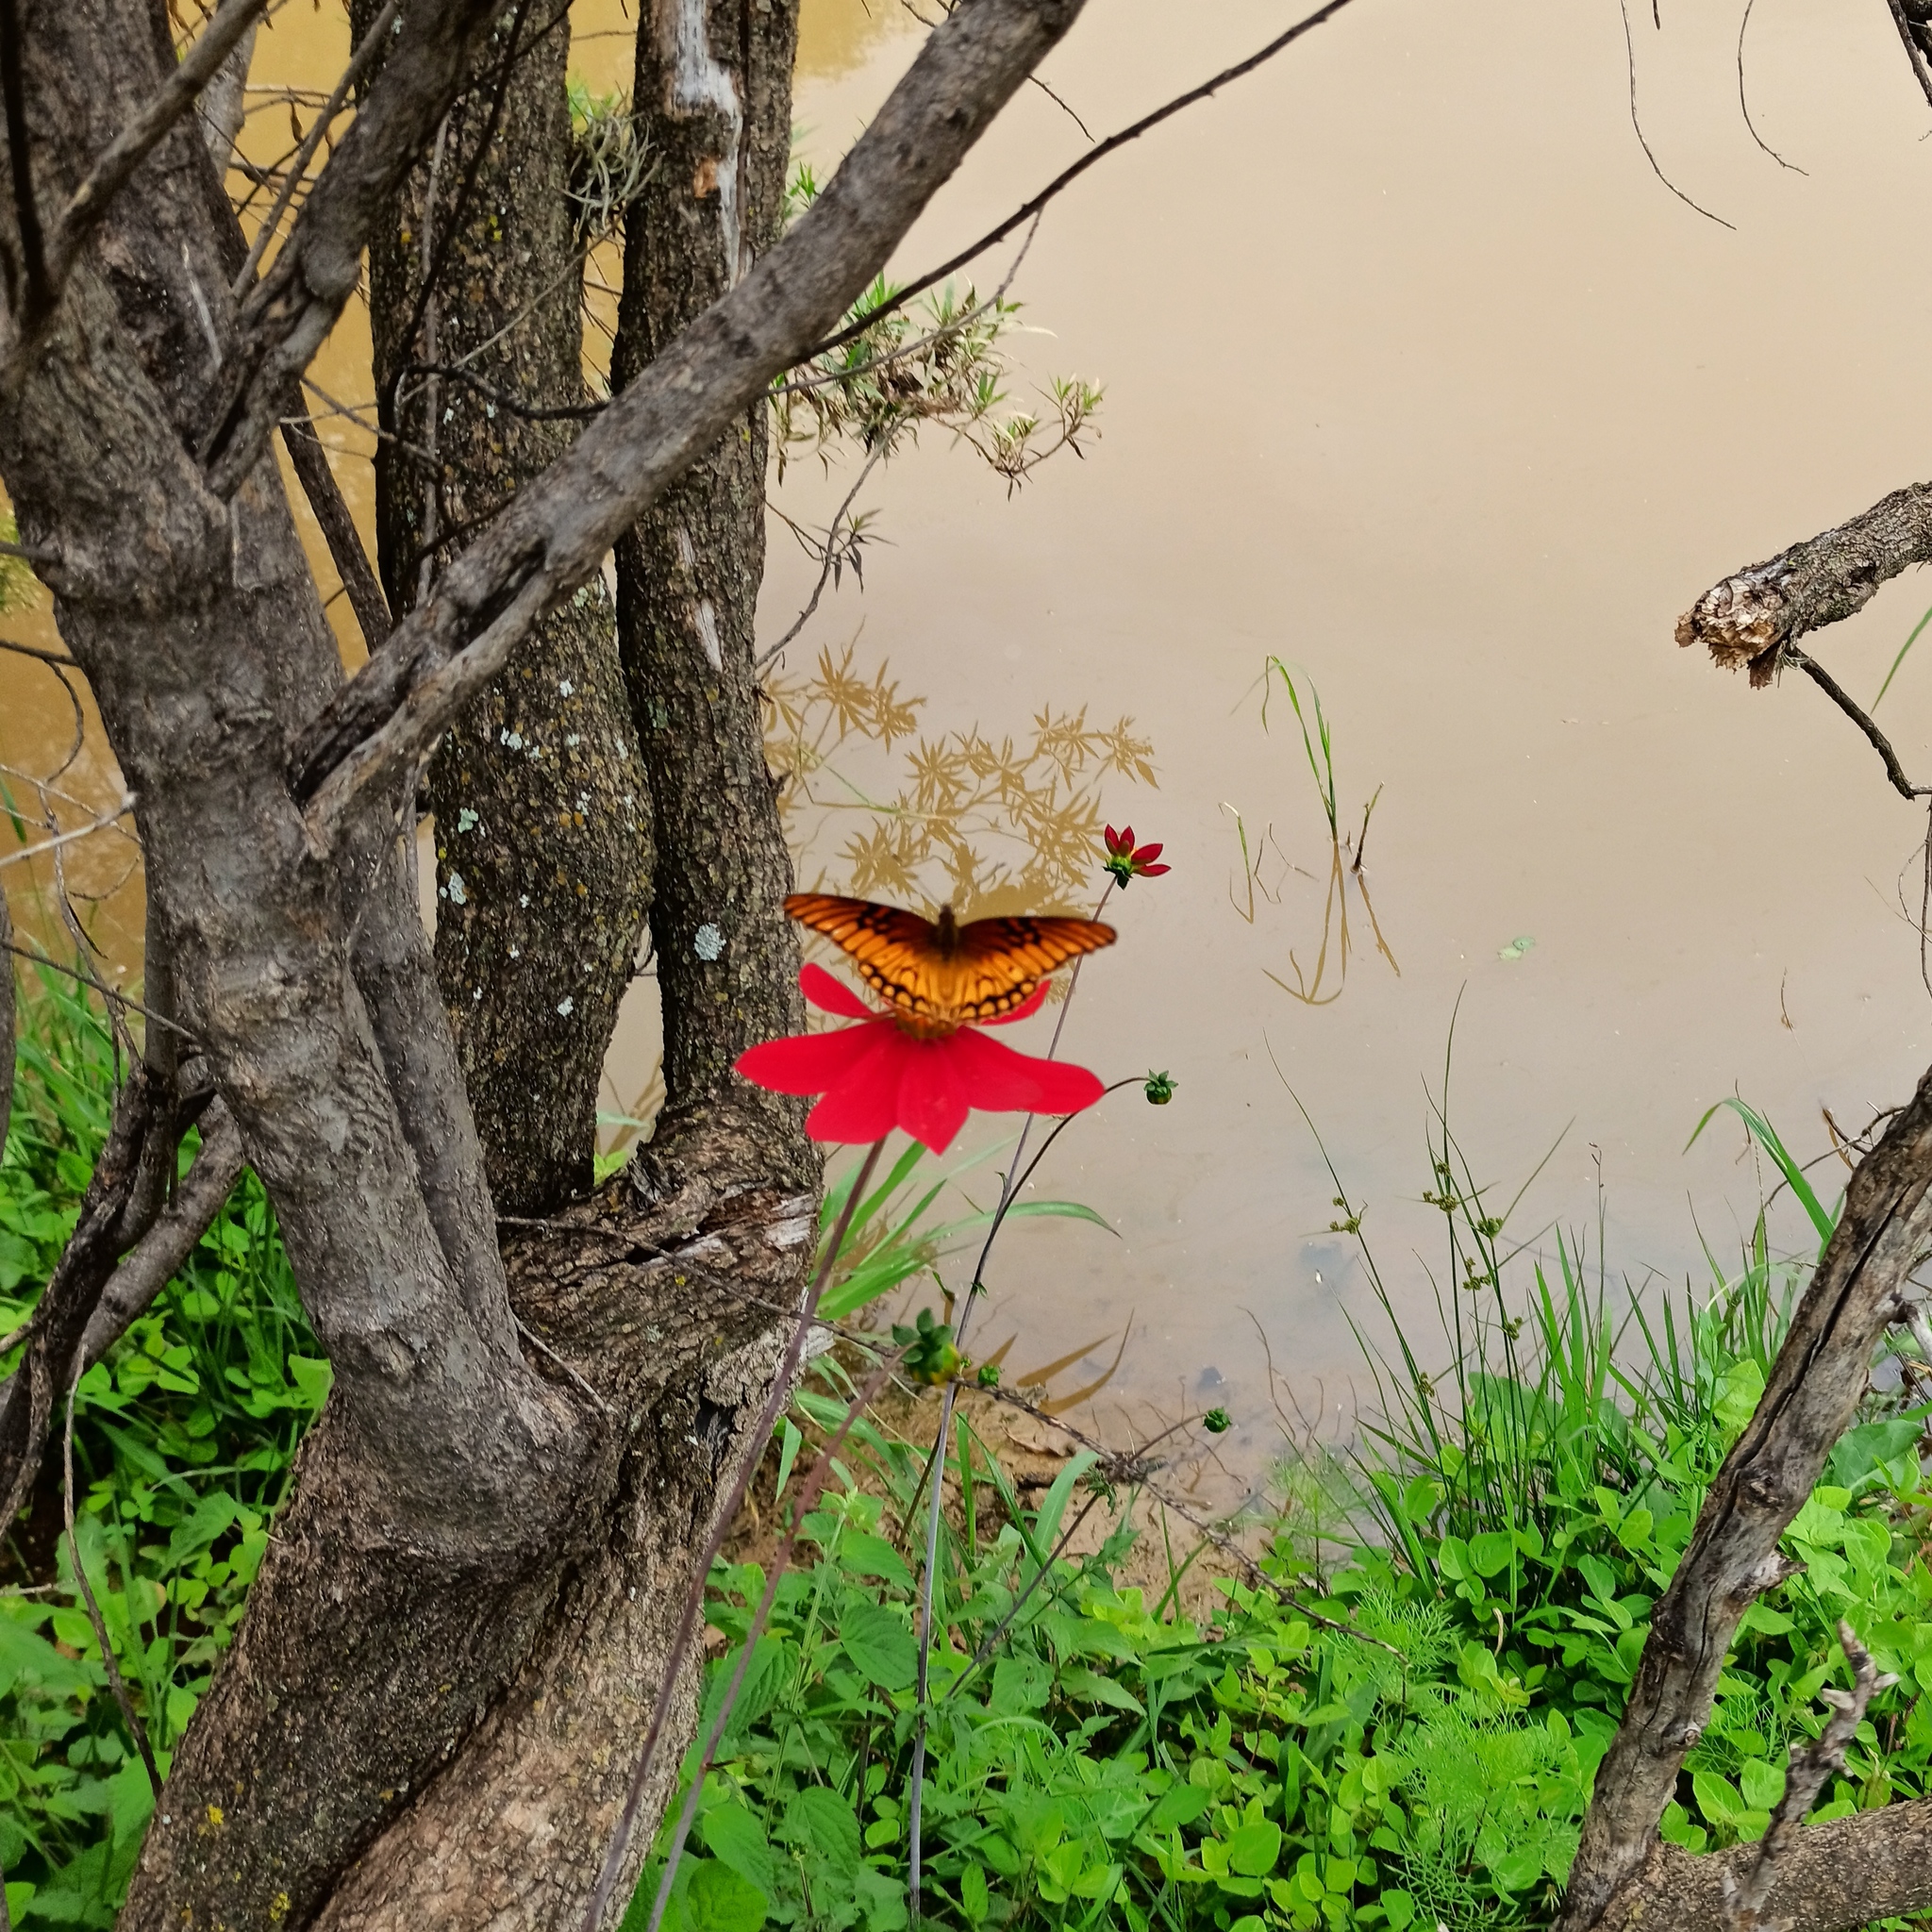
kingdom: Animalia
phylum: Arthropoda
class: Insecta
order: Lepidoptera
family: Nymphalidae
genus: Dione
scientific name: Dione moneta
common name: Mexican silverspot
